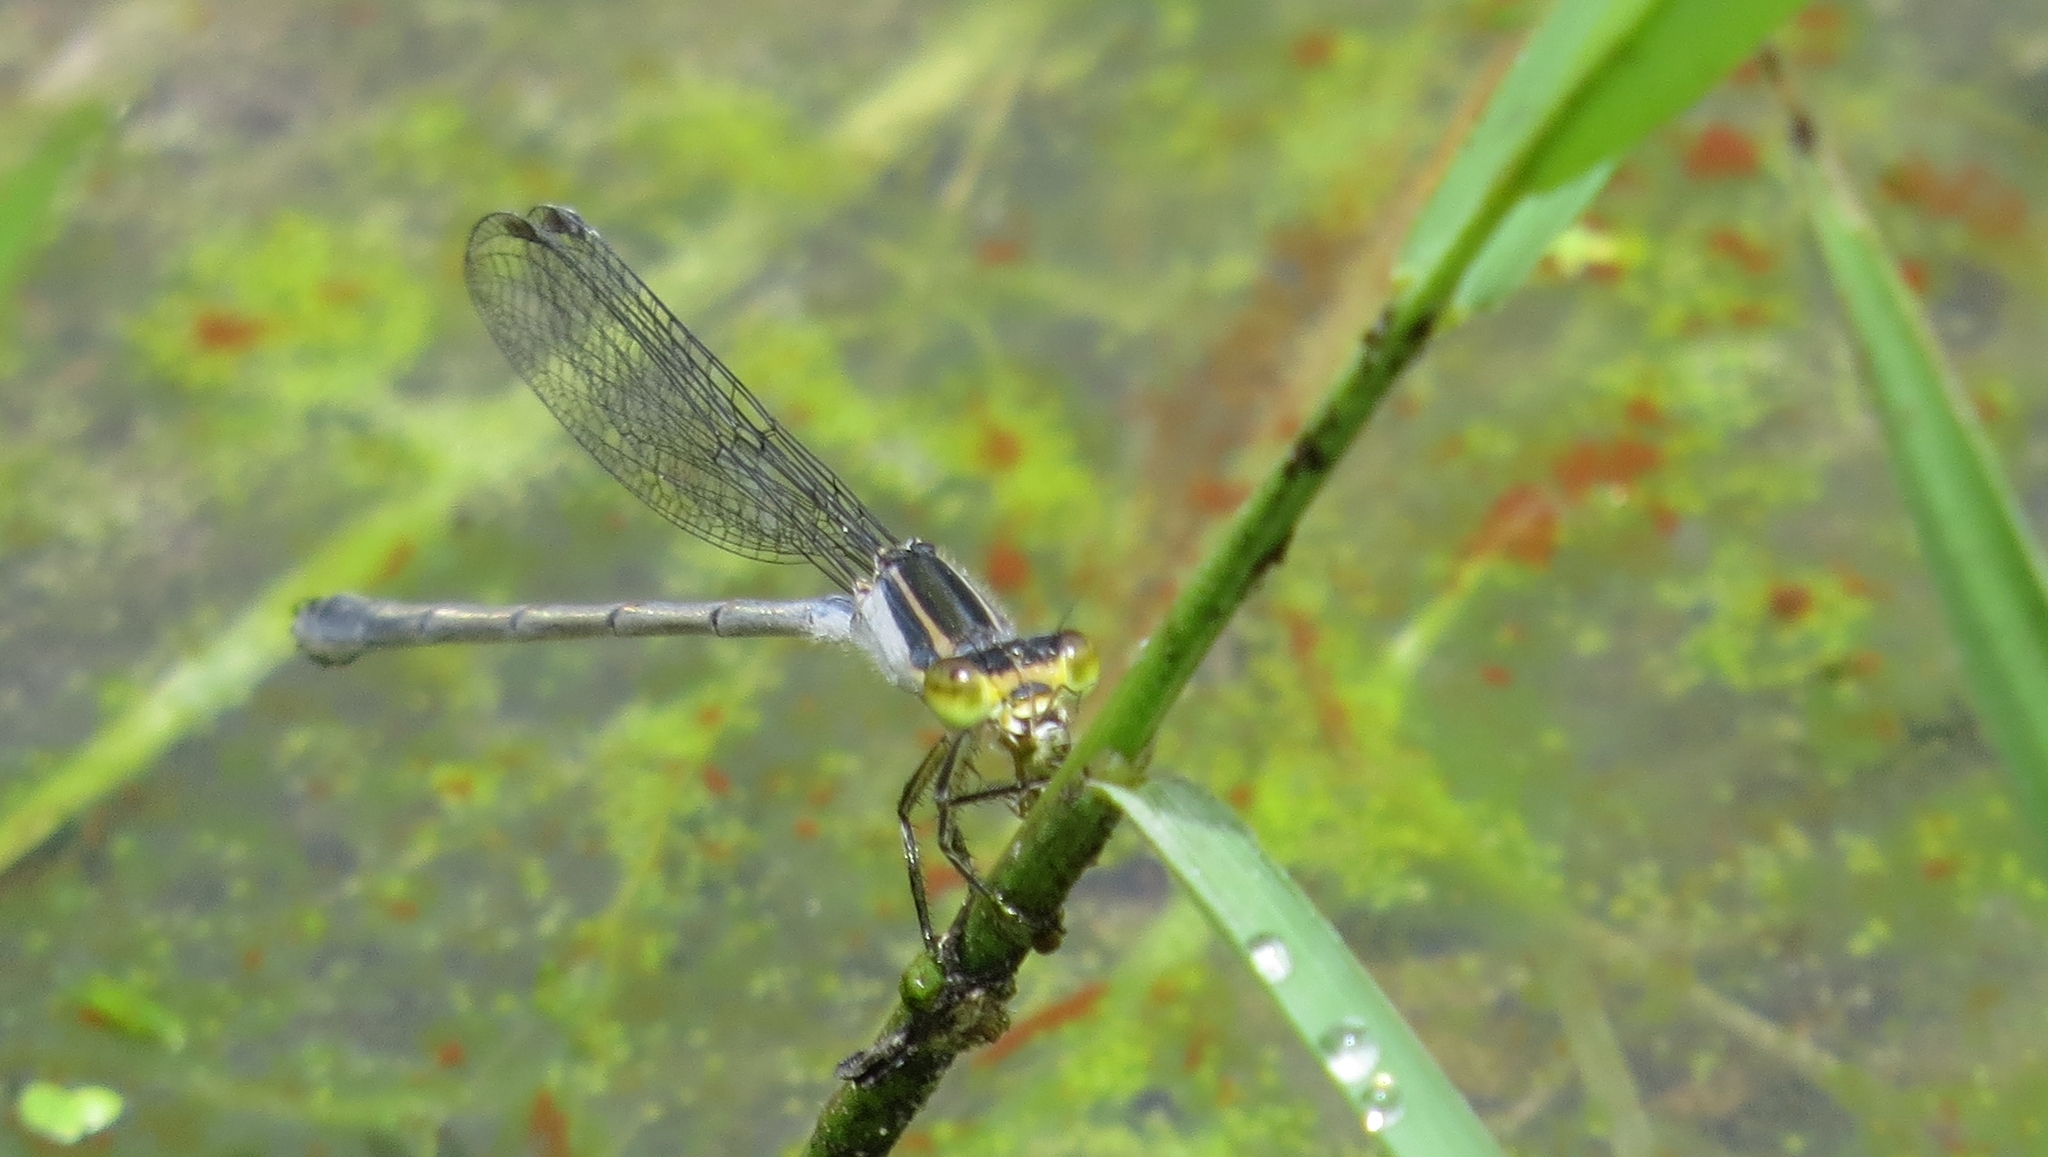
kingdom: Animalia
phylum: Arthropoda
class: Insecta
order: Odonata
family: Coenagrionidae
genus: Ischnura
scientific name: Ischnura heterosticta
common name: Common bluetail
